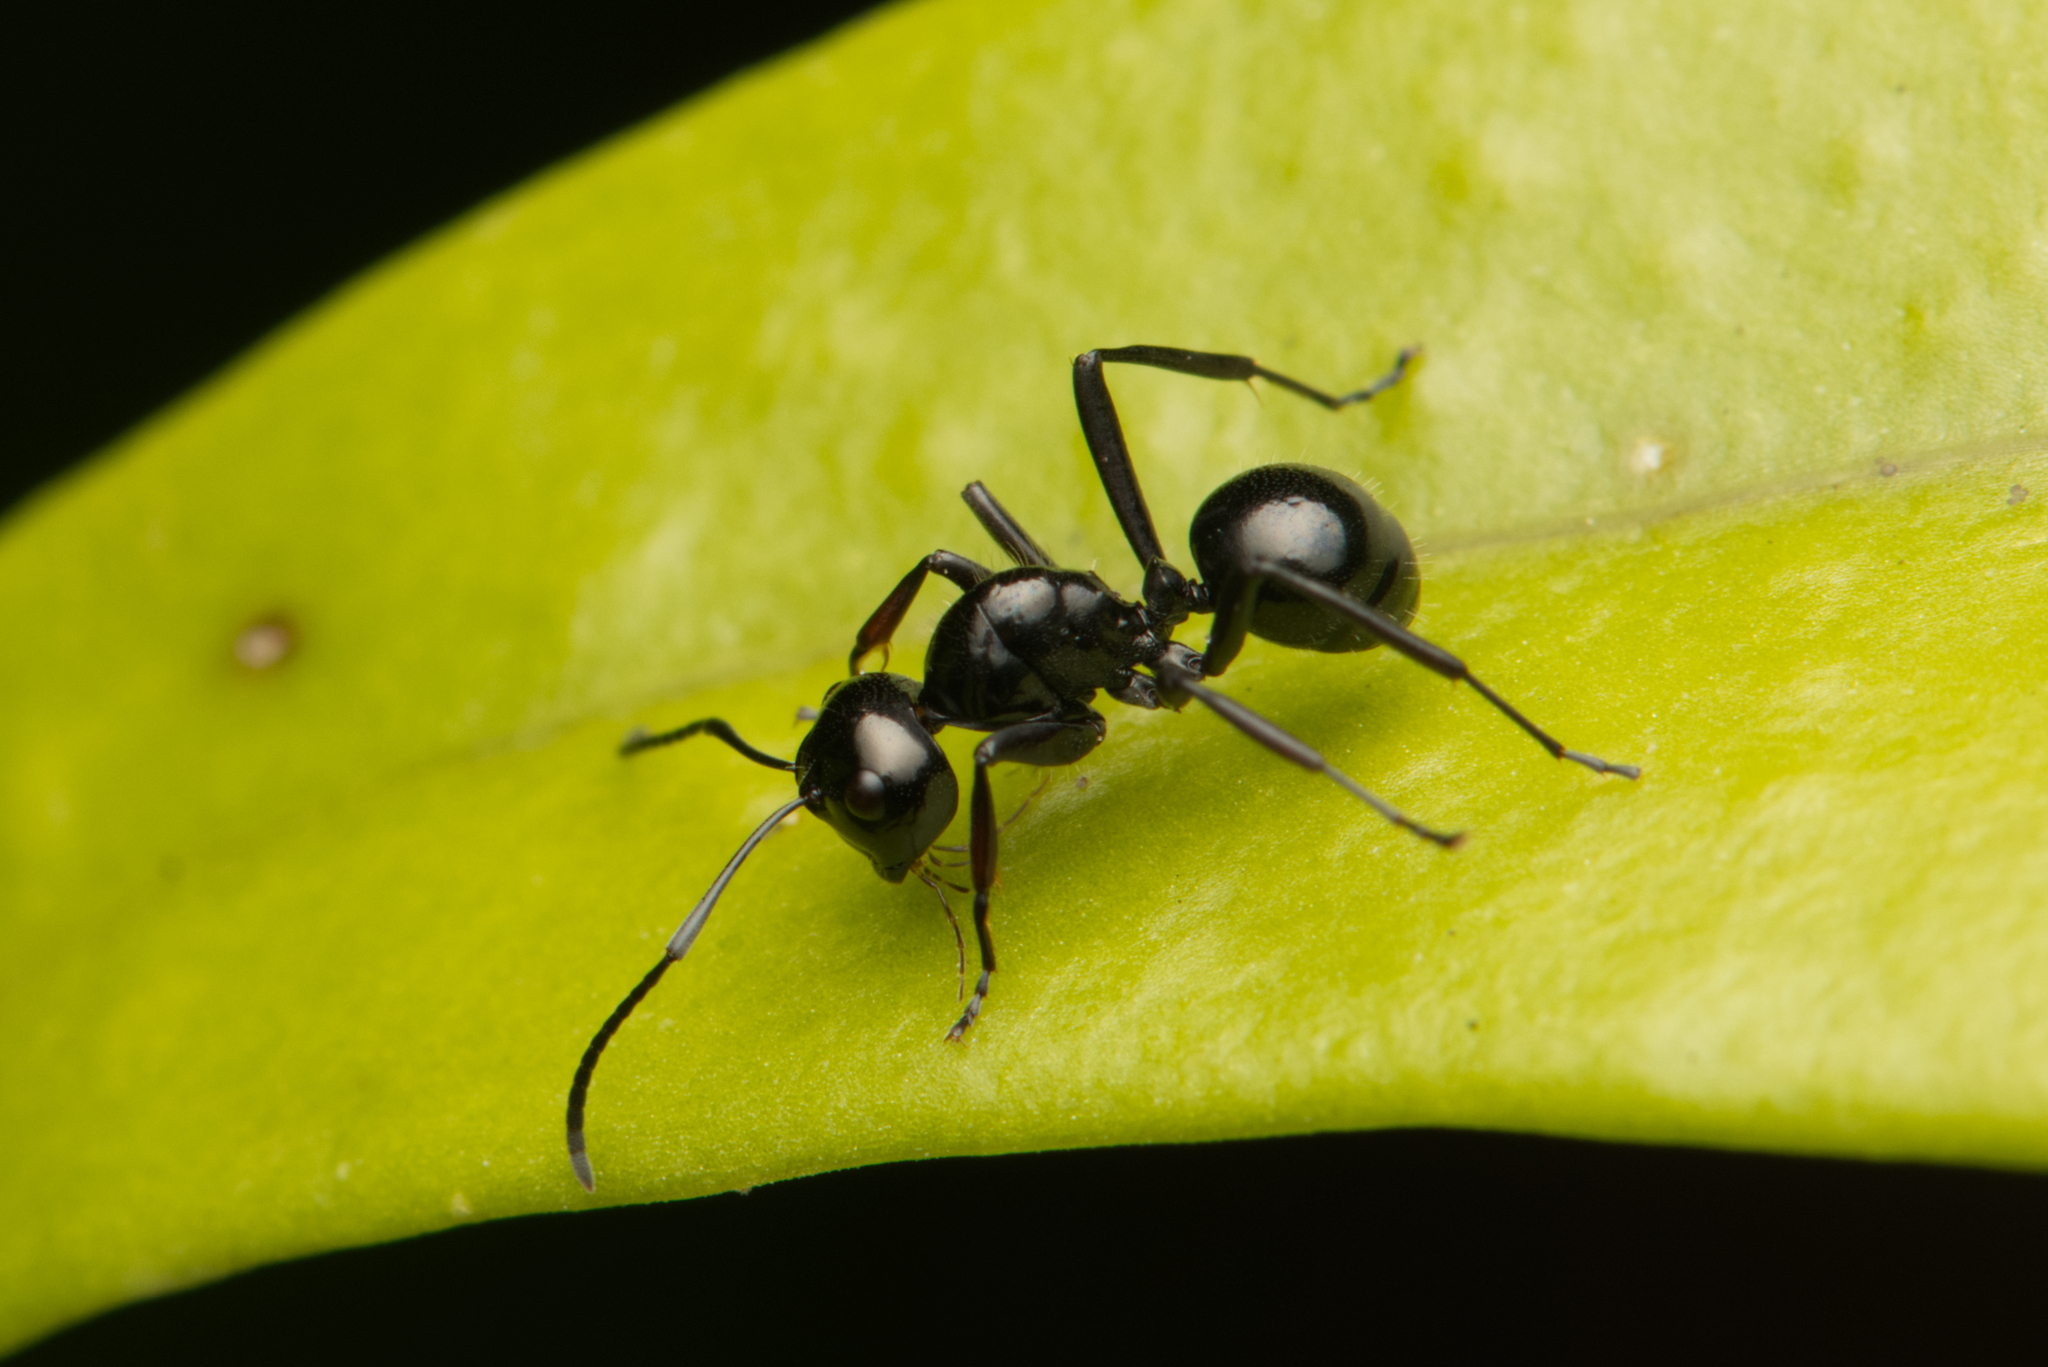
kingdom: Animalia
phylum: Arthropoda
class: Insecta
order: Hymenoptera
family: Formicidae
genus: Polyrhachis
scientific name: Polyrhachis pilosa
